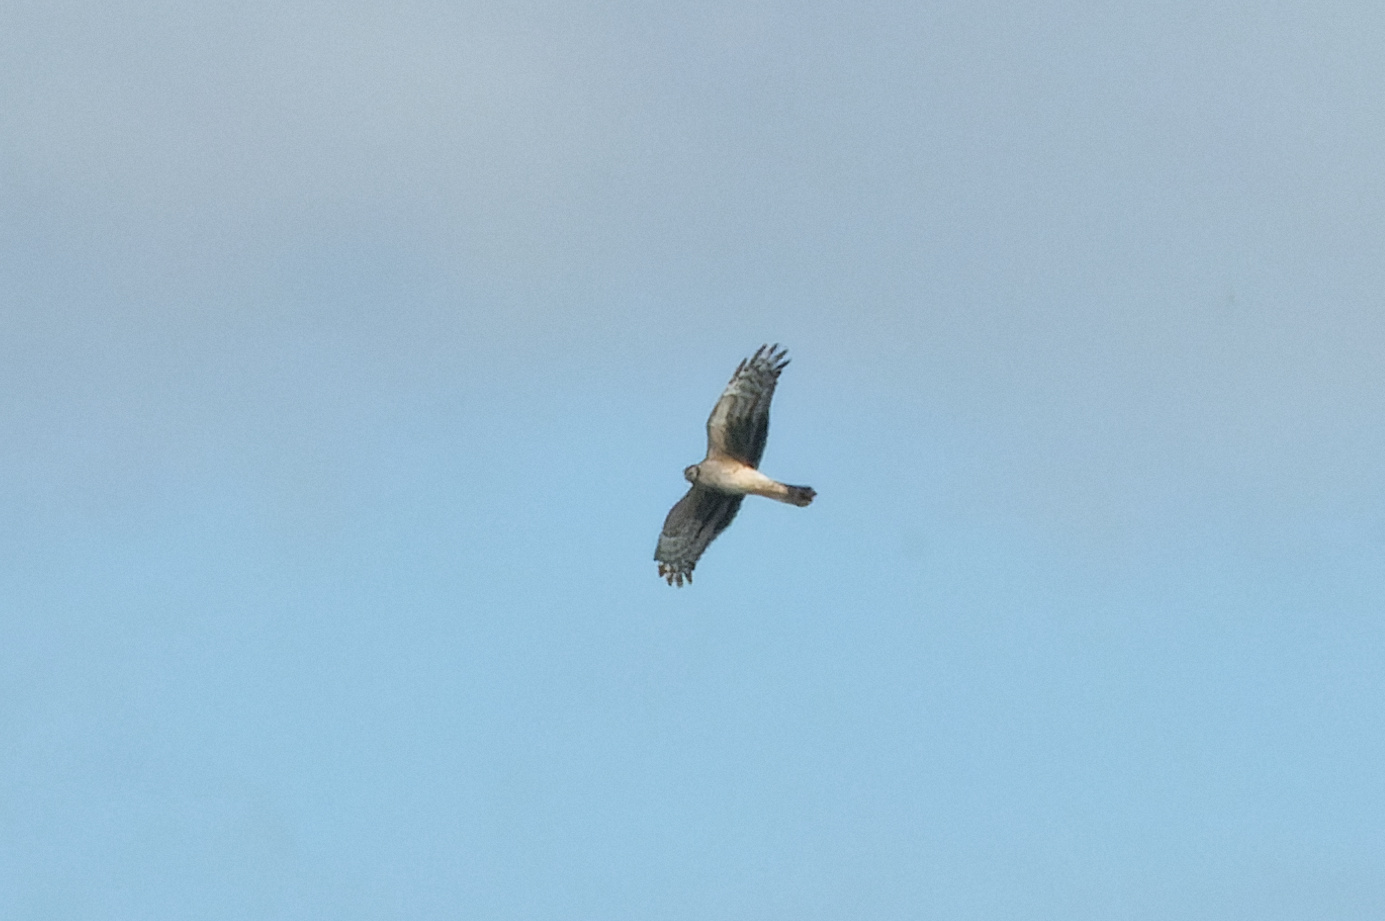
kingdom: Animalia
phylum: Chordata
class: Aves
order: Accipitriformes
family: Accipitridae
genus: Circus
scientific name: Circus cyaneus
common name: Hen harrier
